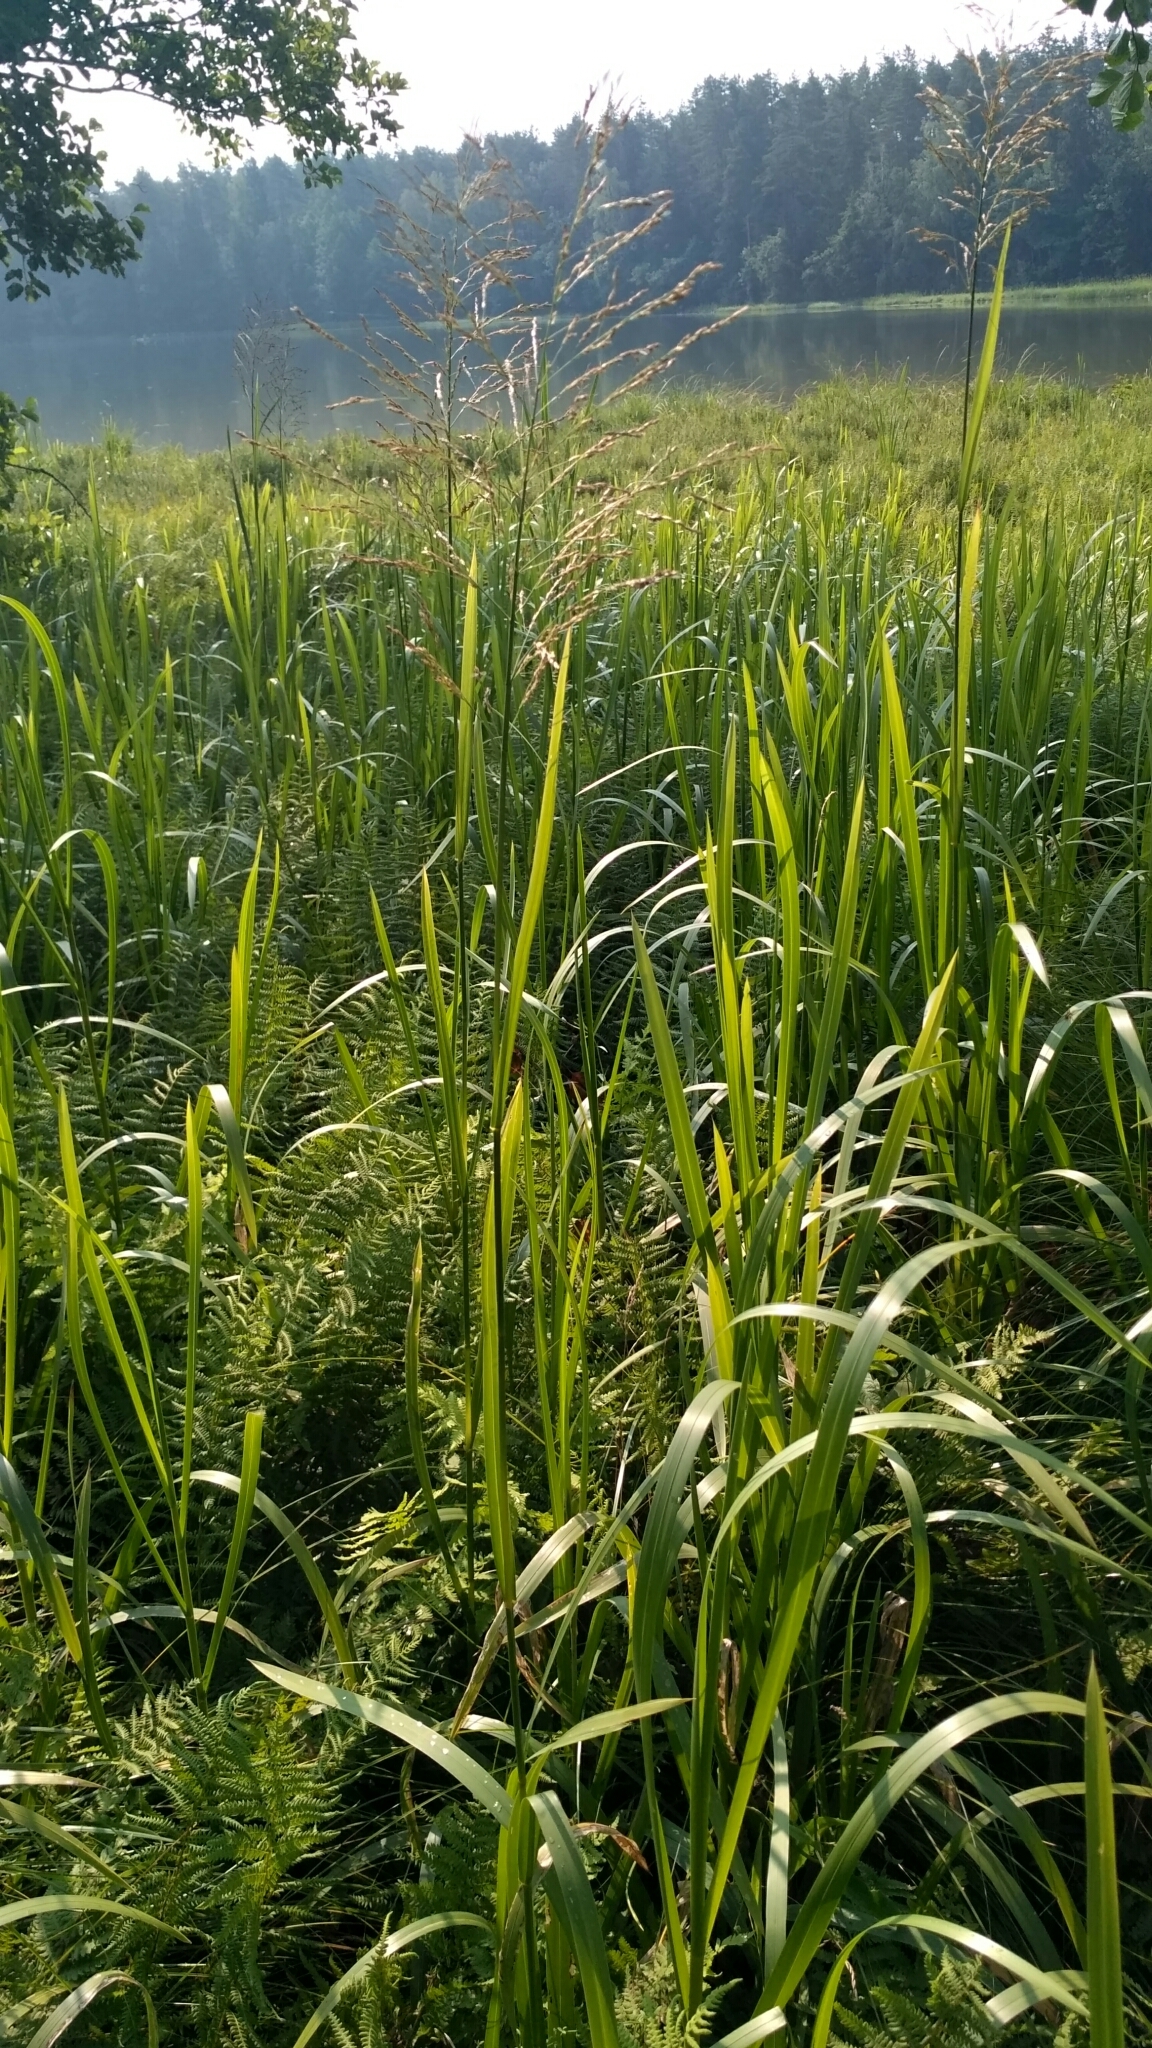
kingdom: Plantae
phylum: Tracheophyta
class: Liliopsida
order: Poales
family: Poaceae
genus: Glyceria
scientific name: Glyceria maxima
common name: Reed mannagrass
